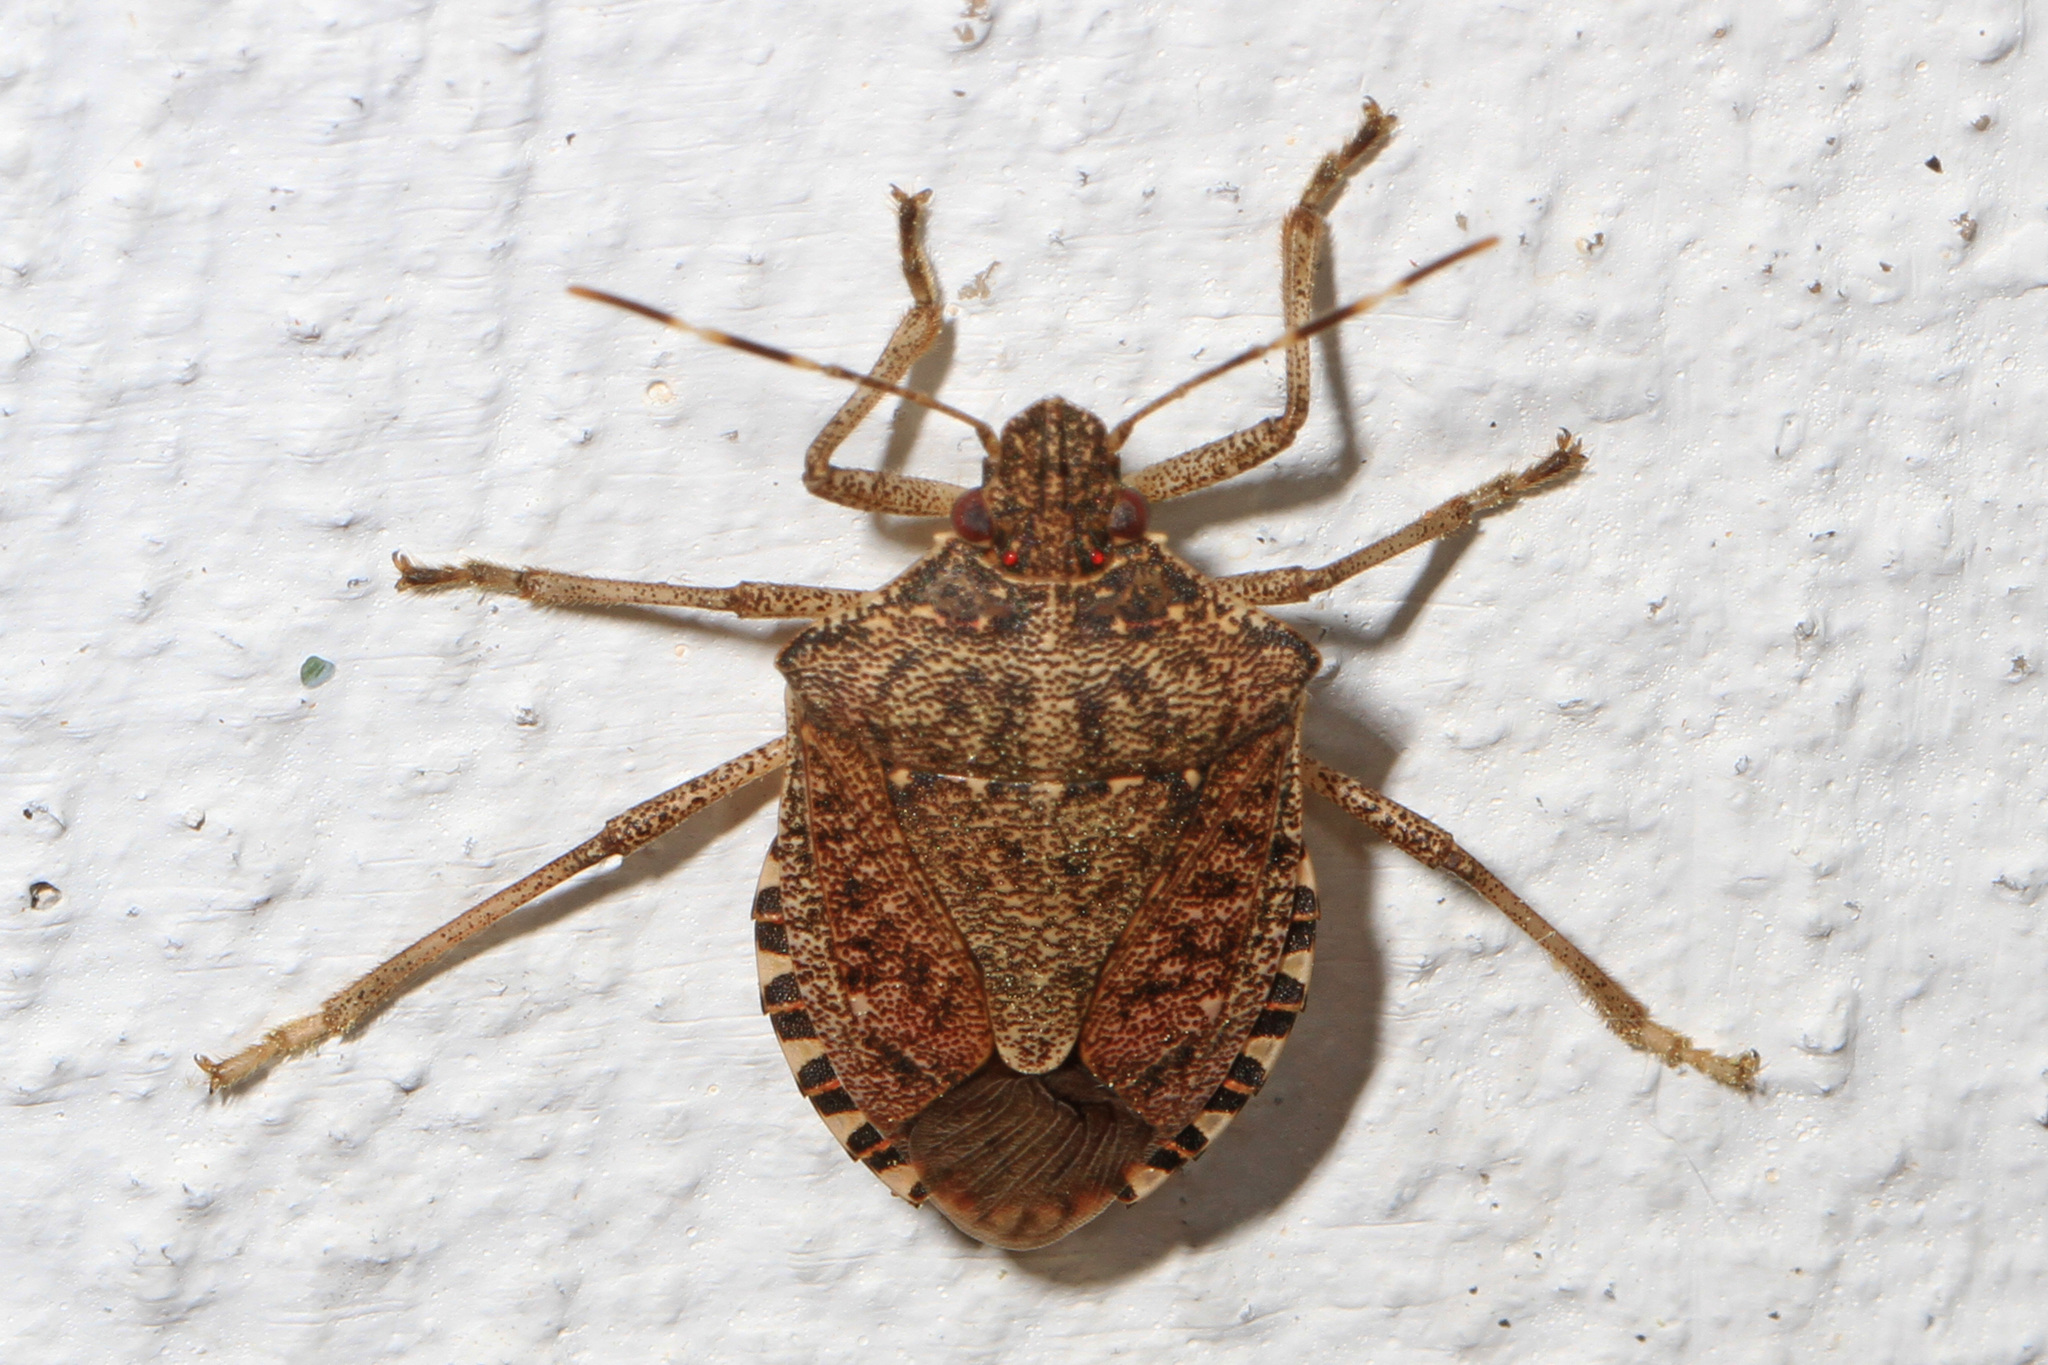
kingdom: Animalia
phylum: Arthropoda
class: Insecta
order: Hemiptera
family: Pentatomidae
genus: Halyomorpha
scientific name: Halyomorpha halys
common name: Brown marmorated stink bug
